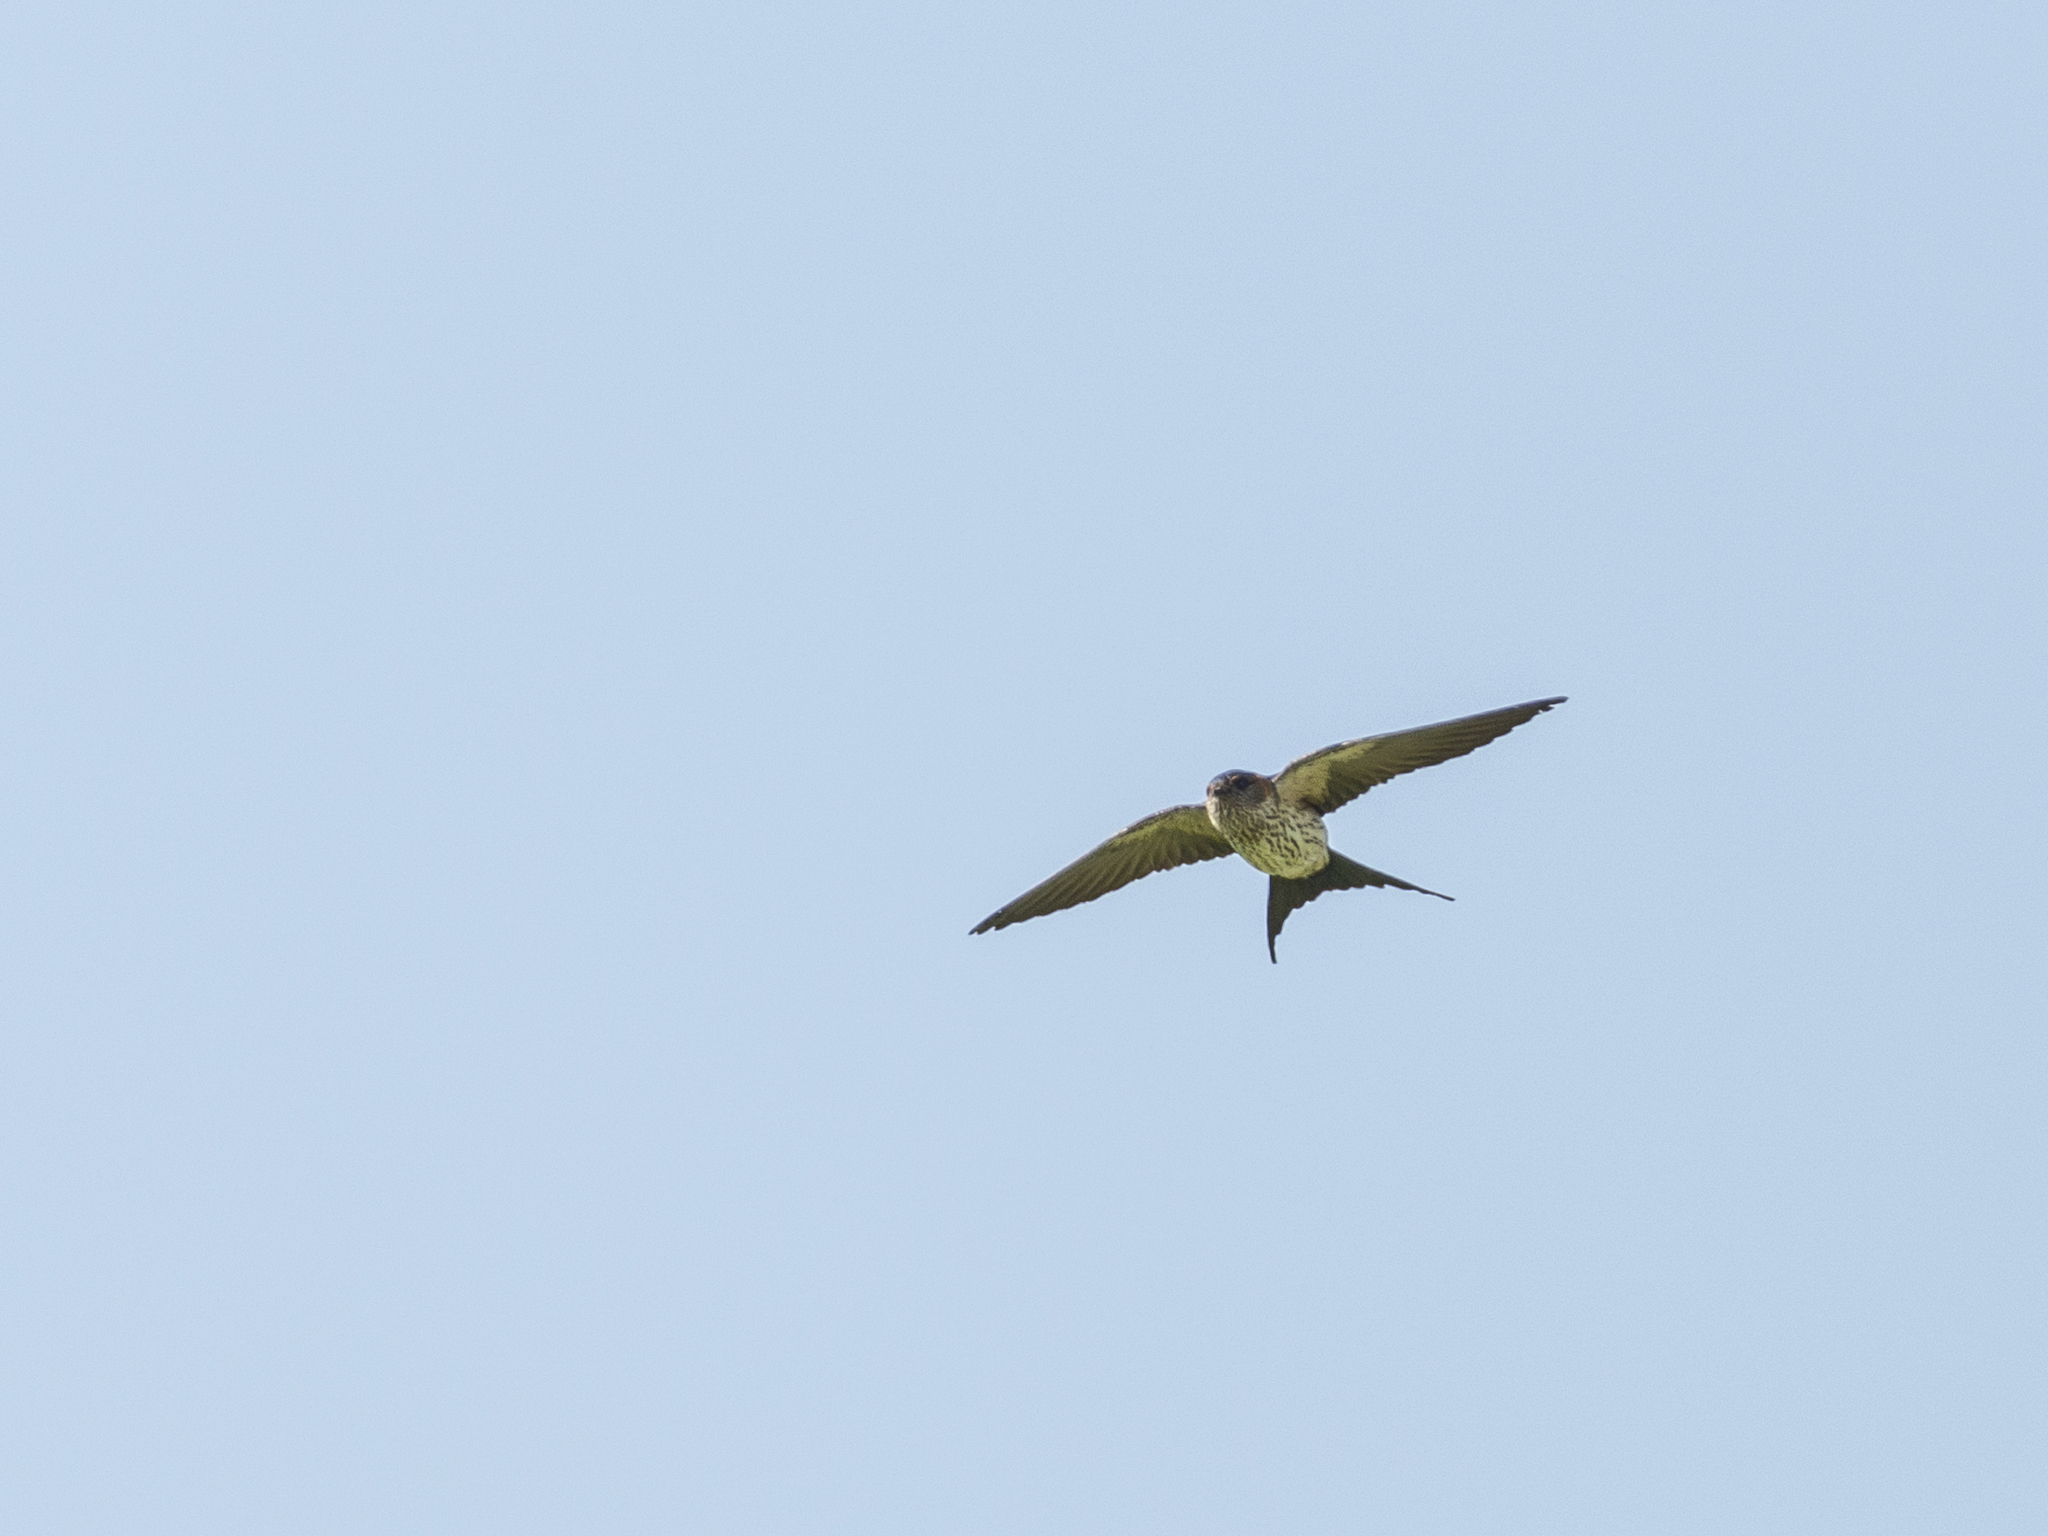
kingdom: Animalia
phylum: Chordata
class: Aves
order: Passeriformes
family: Hirundinidae
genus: Cecropis
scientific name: Cecropis daurica
